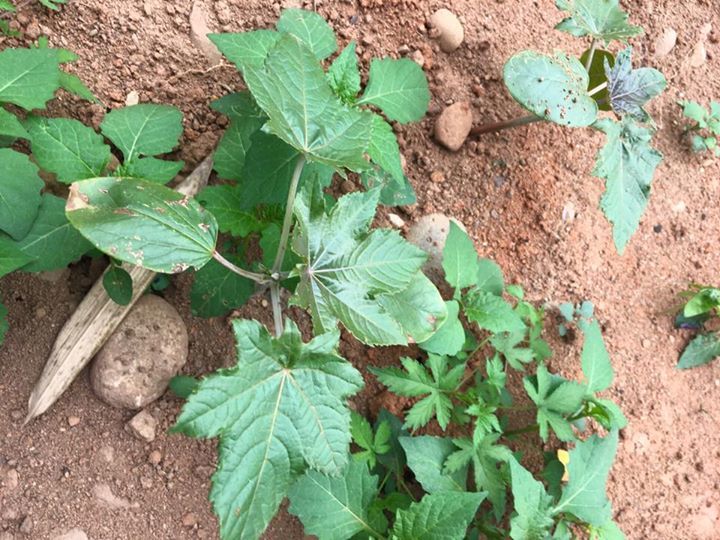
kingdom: Plantae
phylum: Tracheophyta
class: Magnoliopsida
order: Malpighiales
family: Euphorbiaceae
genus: Ricinus
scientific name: Ricinus communis
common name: Castor-oil-plant
